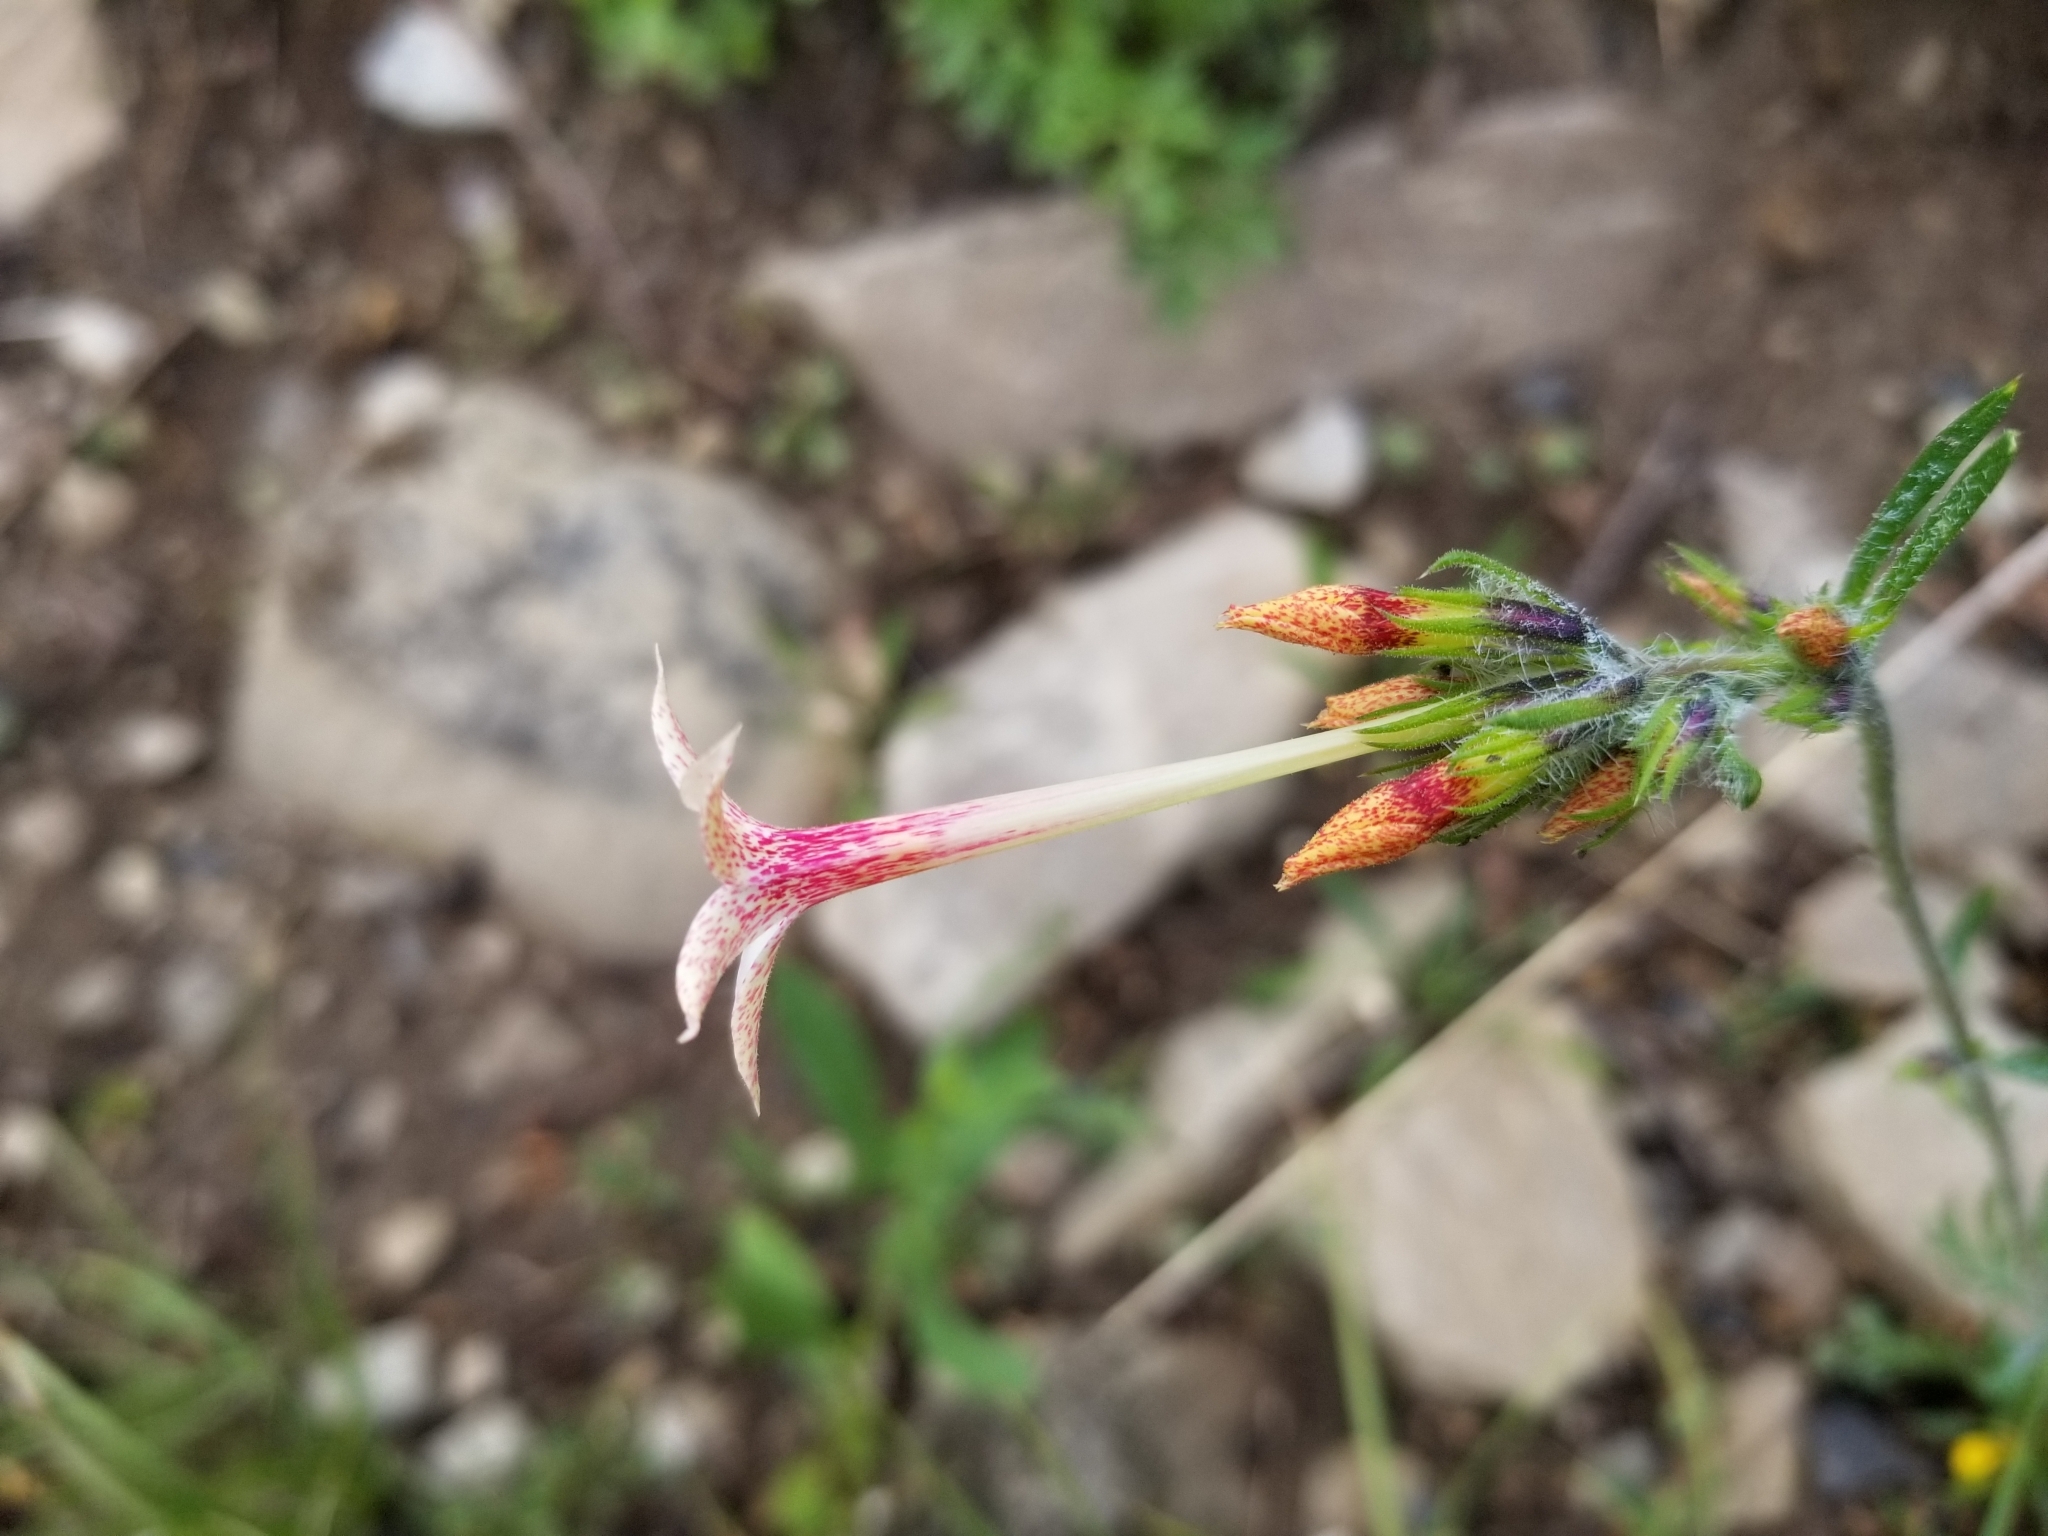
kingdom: Plantae
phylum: Tracheophyta
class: Magnoliopsida
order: Ericales
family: Polemoniaceae
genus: Ipomopsis
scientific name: Ipomopsis tenuituba
